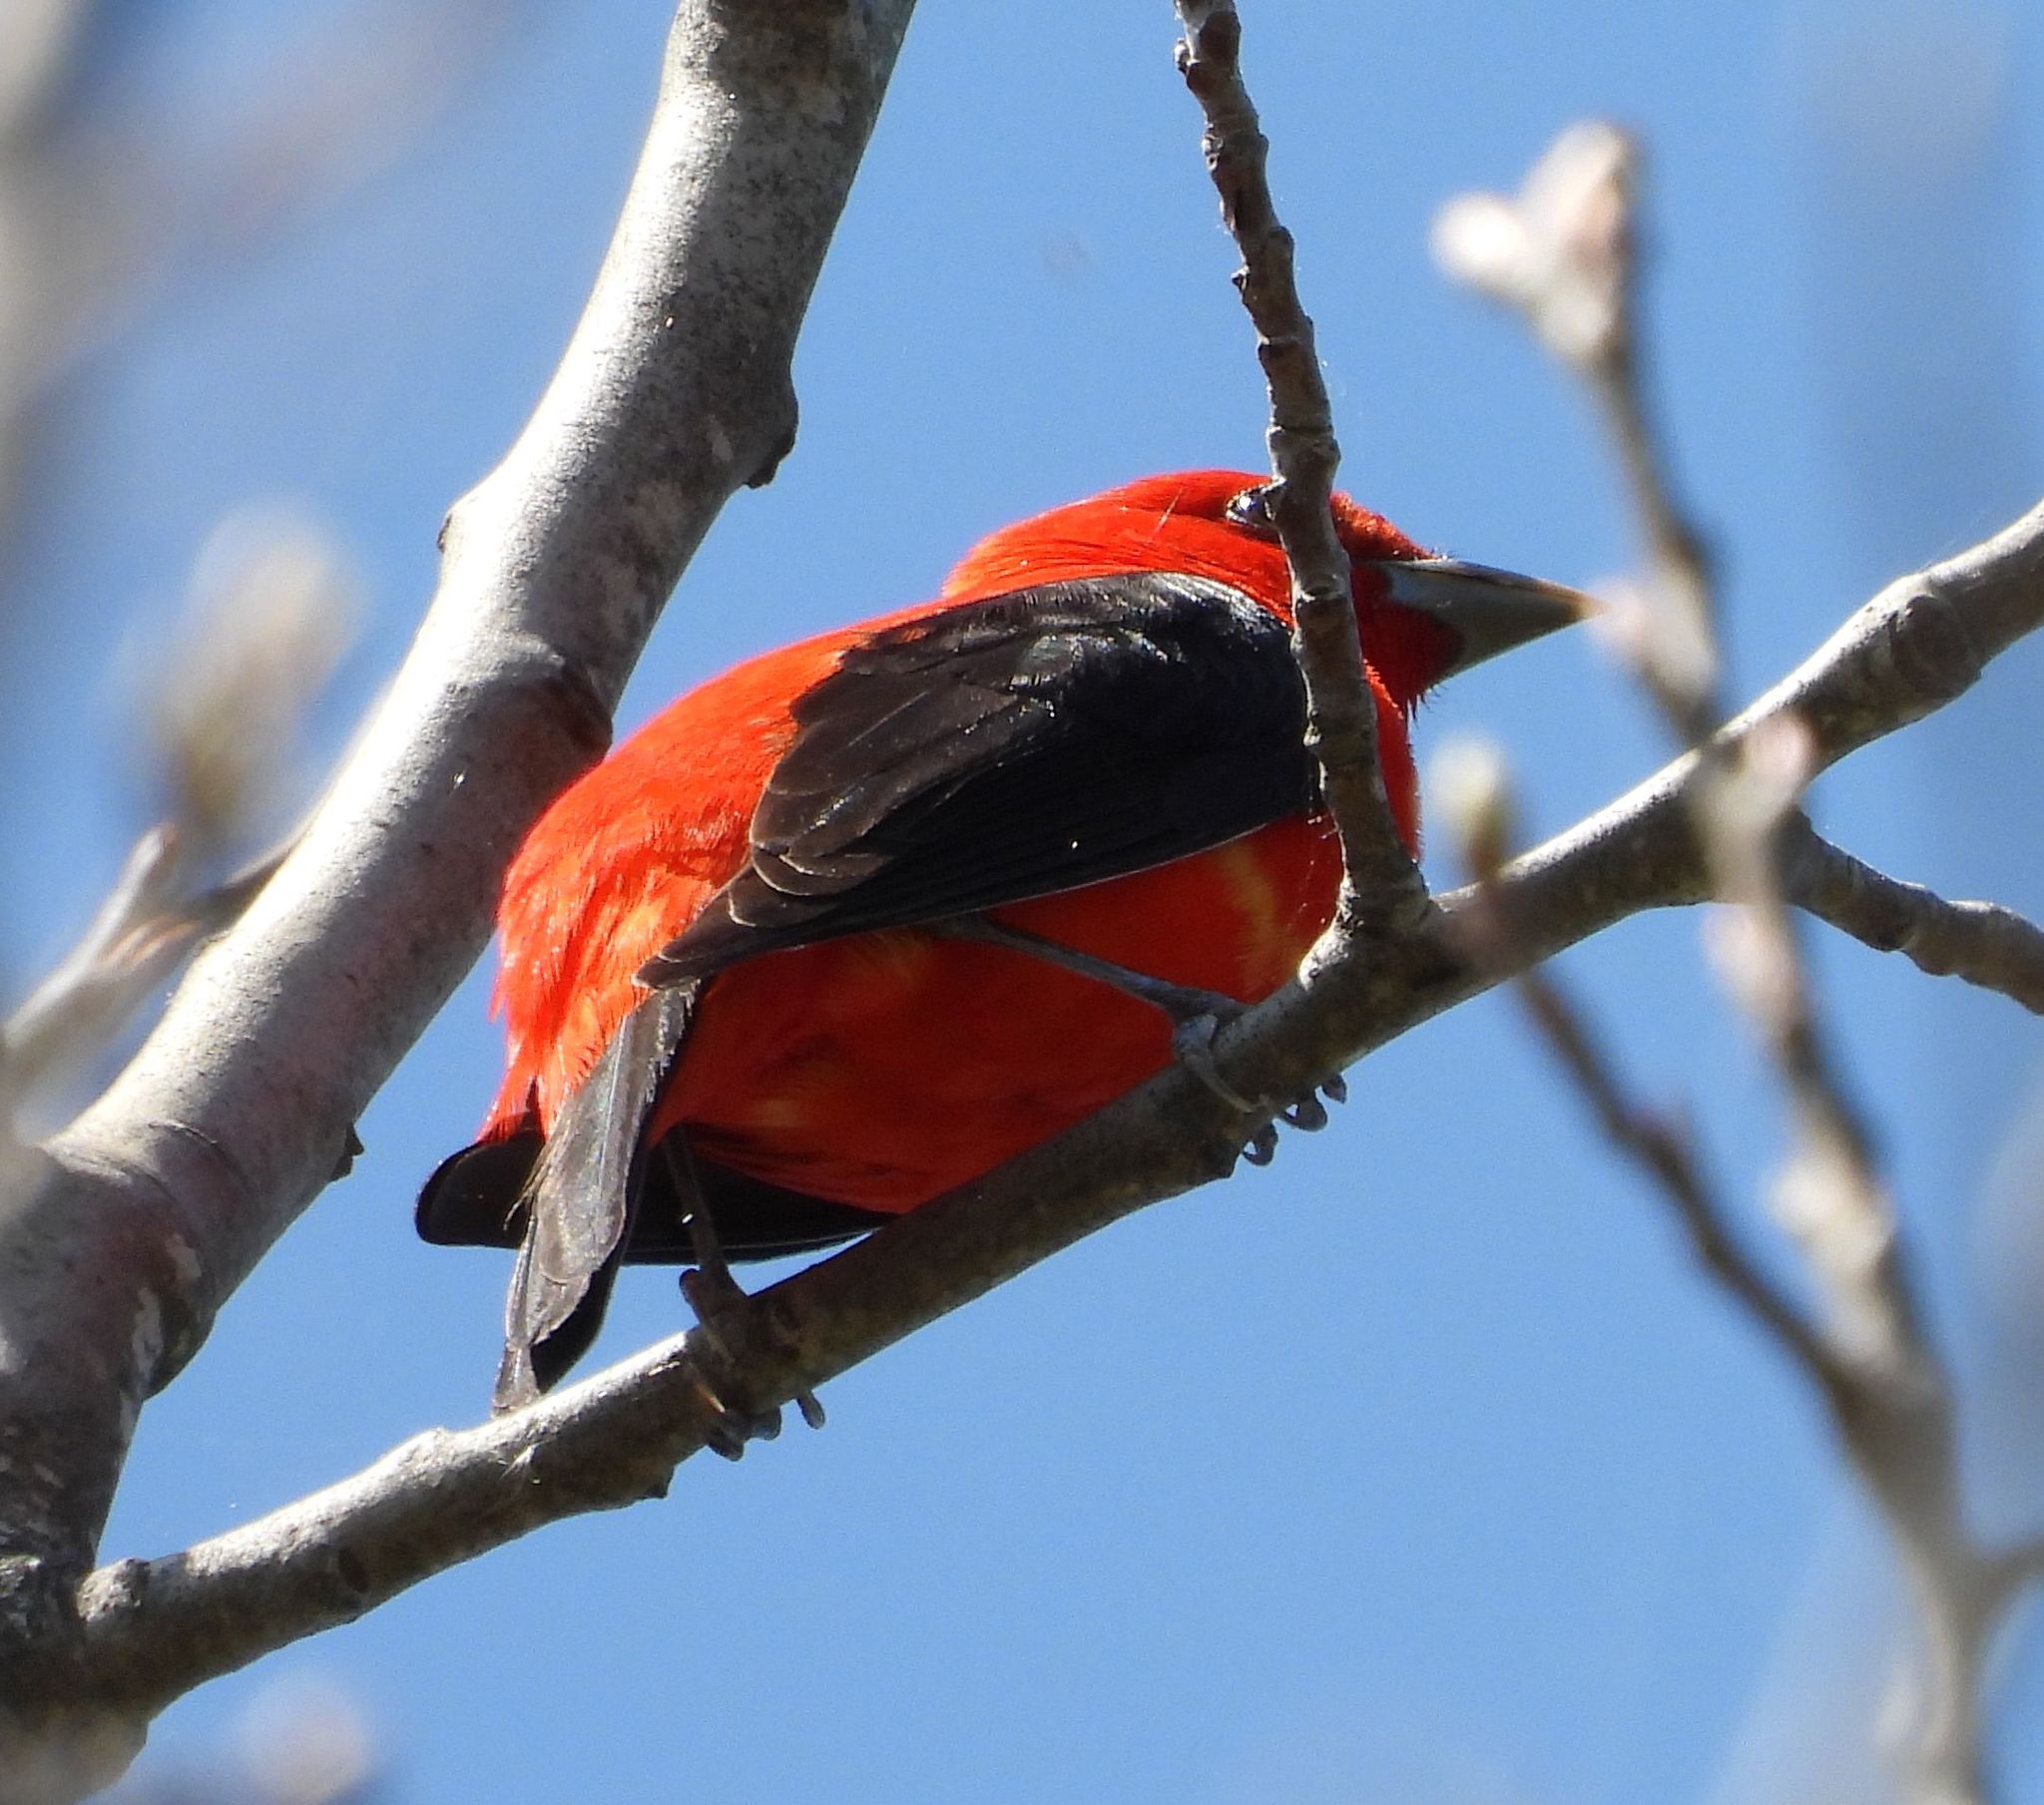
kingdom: Animalia
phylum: Chordata
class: Aves
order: Passeriformes
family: Cardinalidae
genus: Piranga
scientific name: Piranga olivacea
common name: Scarlet tanager
